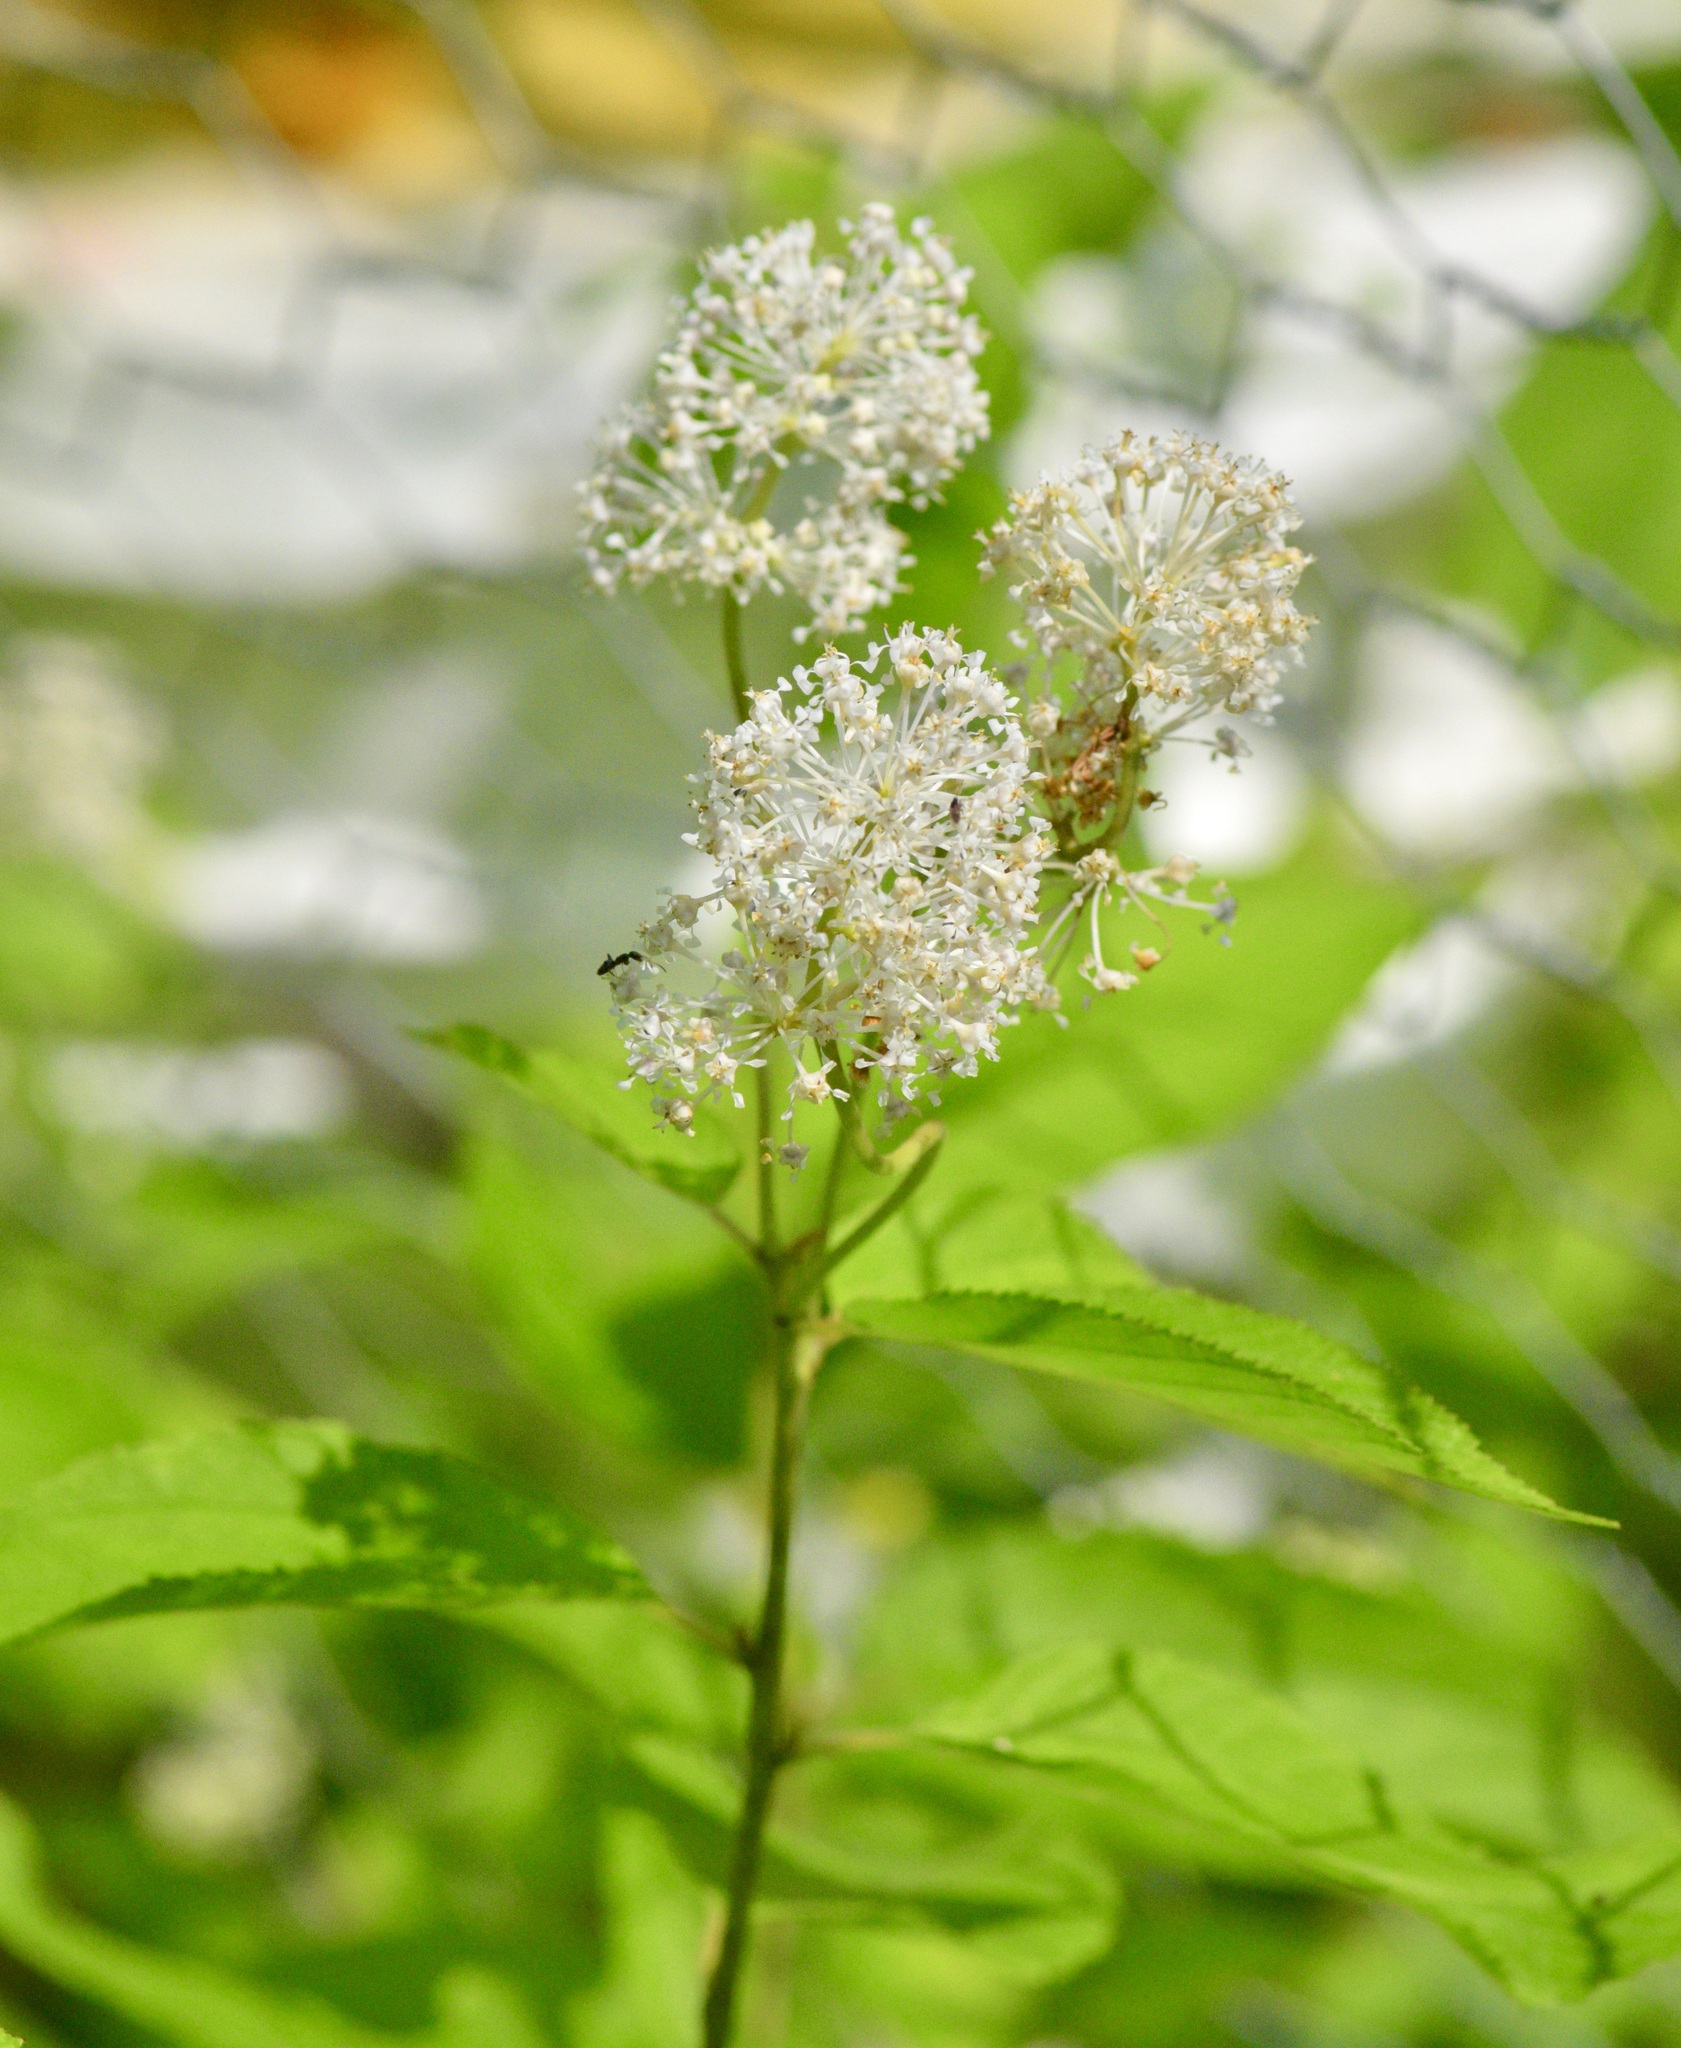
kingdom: Plantae
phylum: Tracheophyta
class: Magnoliopsida
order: Rosales
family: Rhamnaceae
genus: Ceanothus
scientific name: Ceanothus americanus
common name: Redroot
